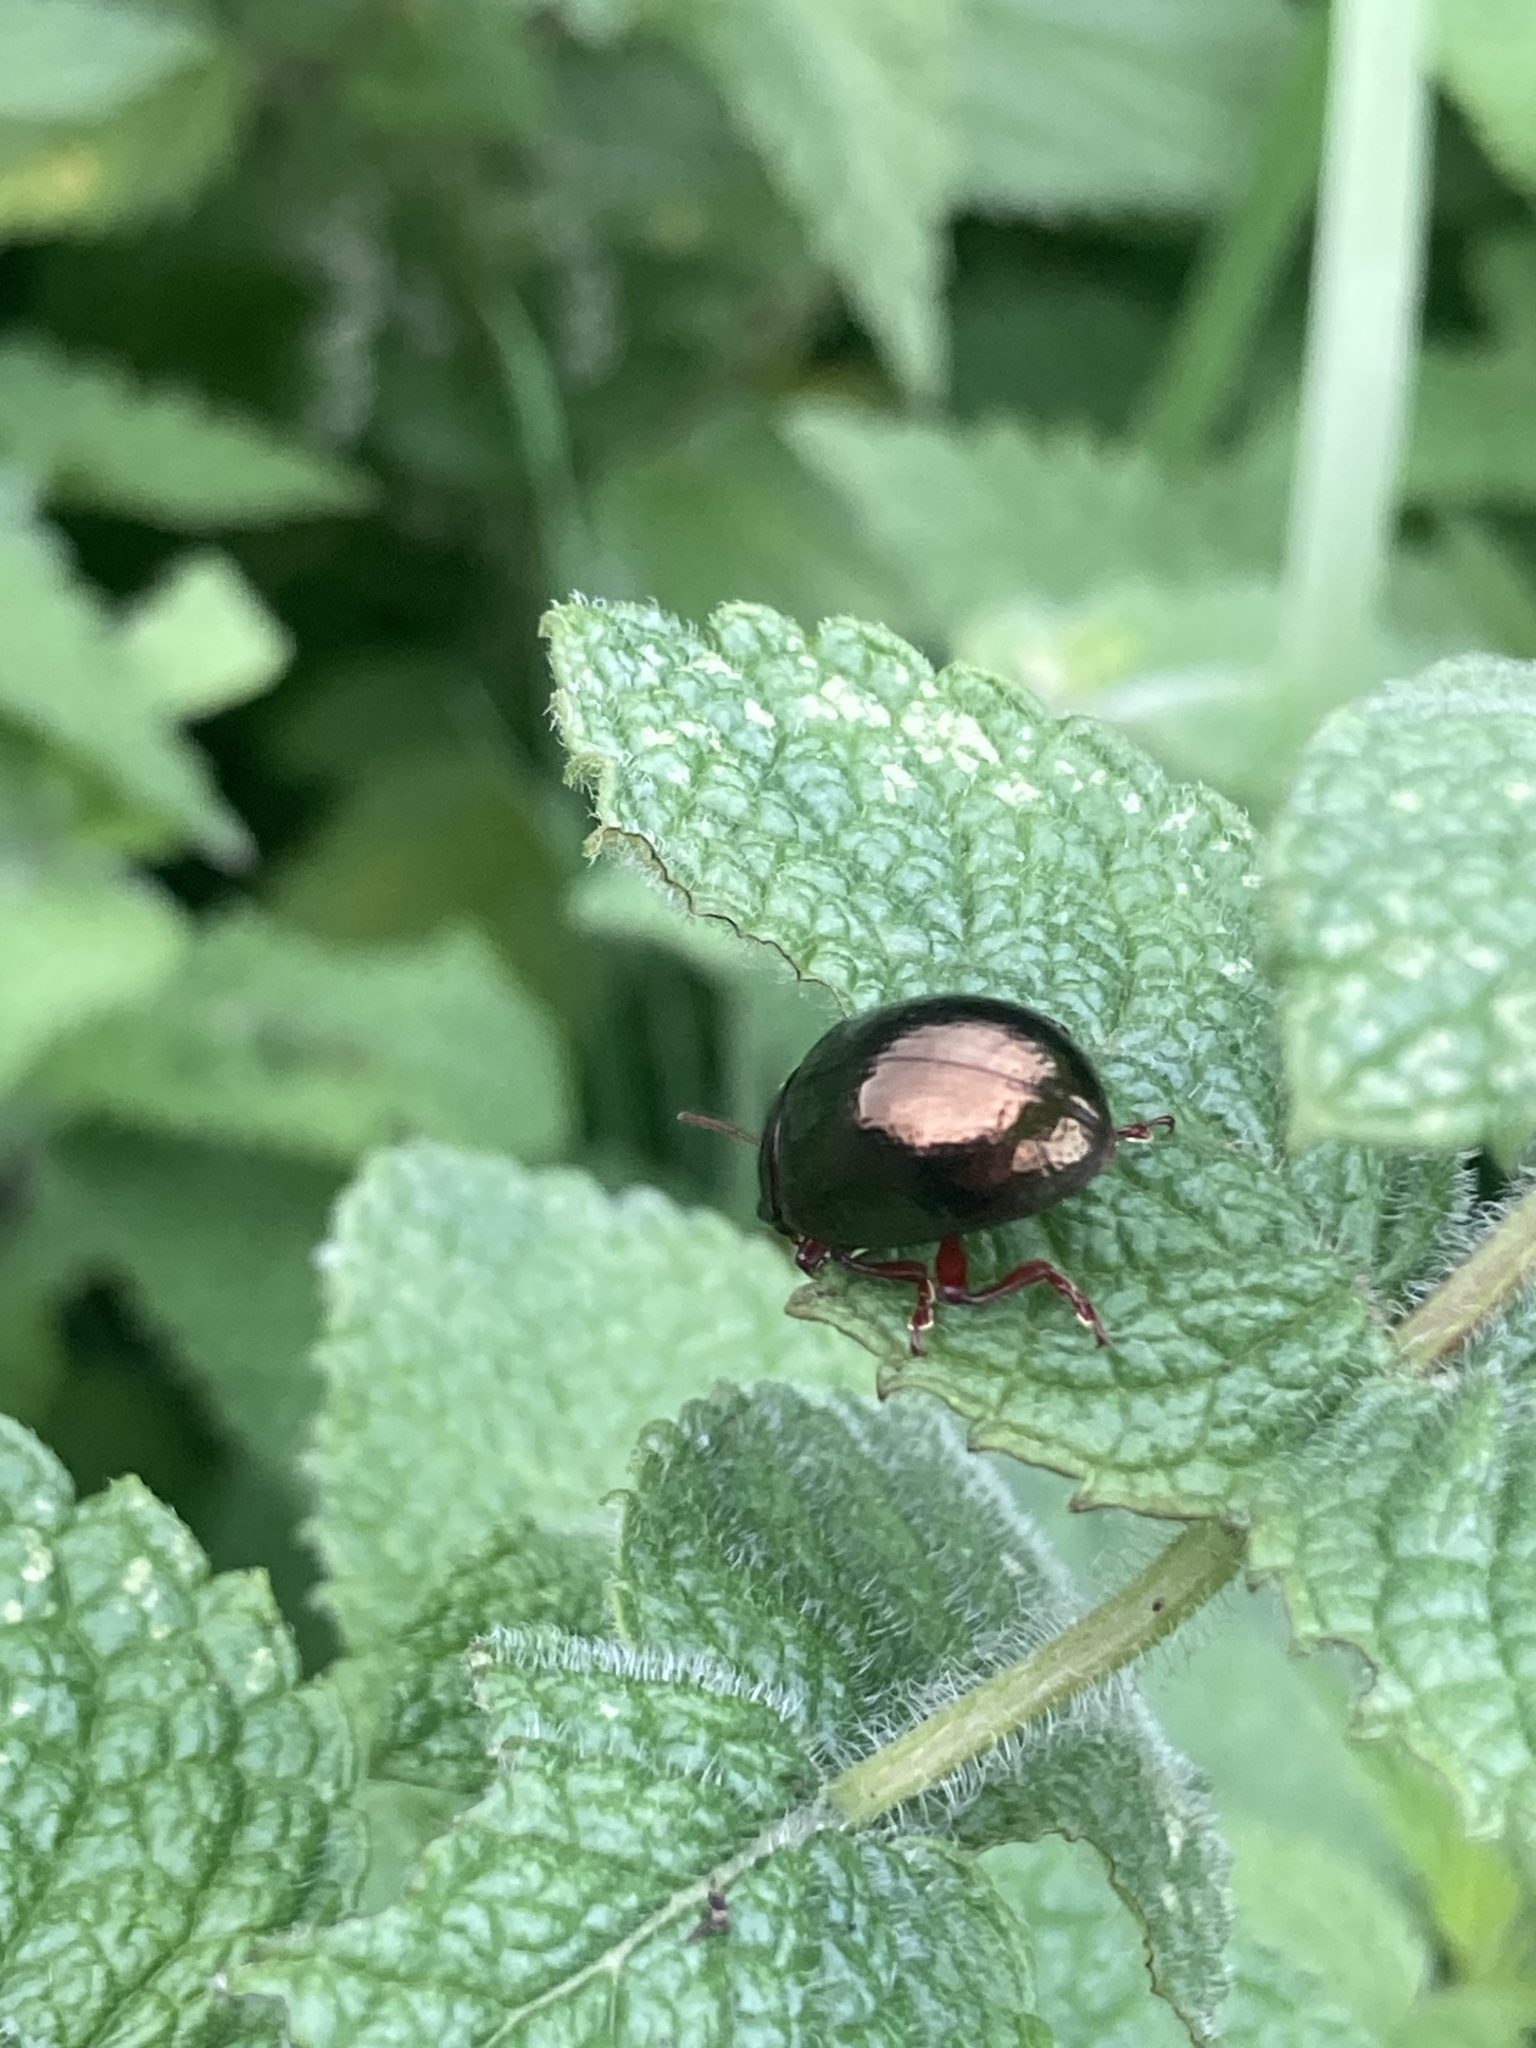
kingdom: Animalia
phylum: Arthropoda
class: Insecta
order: Coleoptera
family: Chrysomelidae
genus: Chrysolina
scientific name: Chrysolina bankii
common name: Leaf beetle
